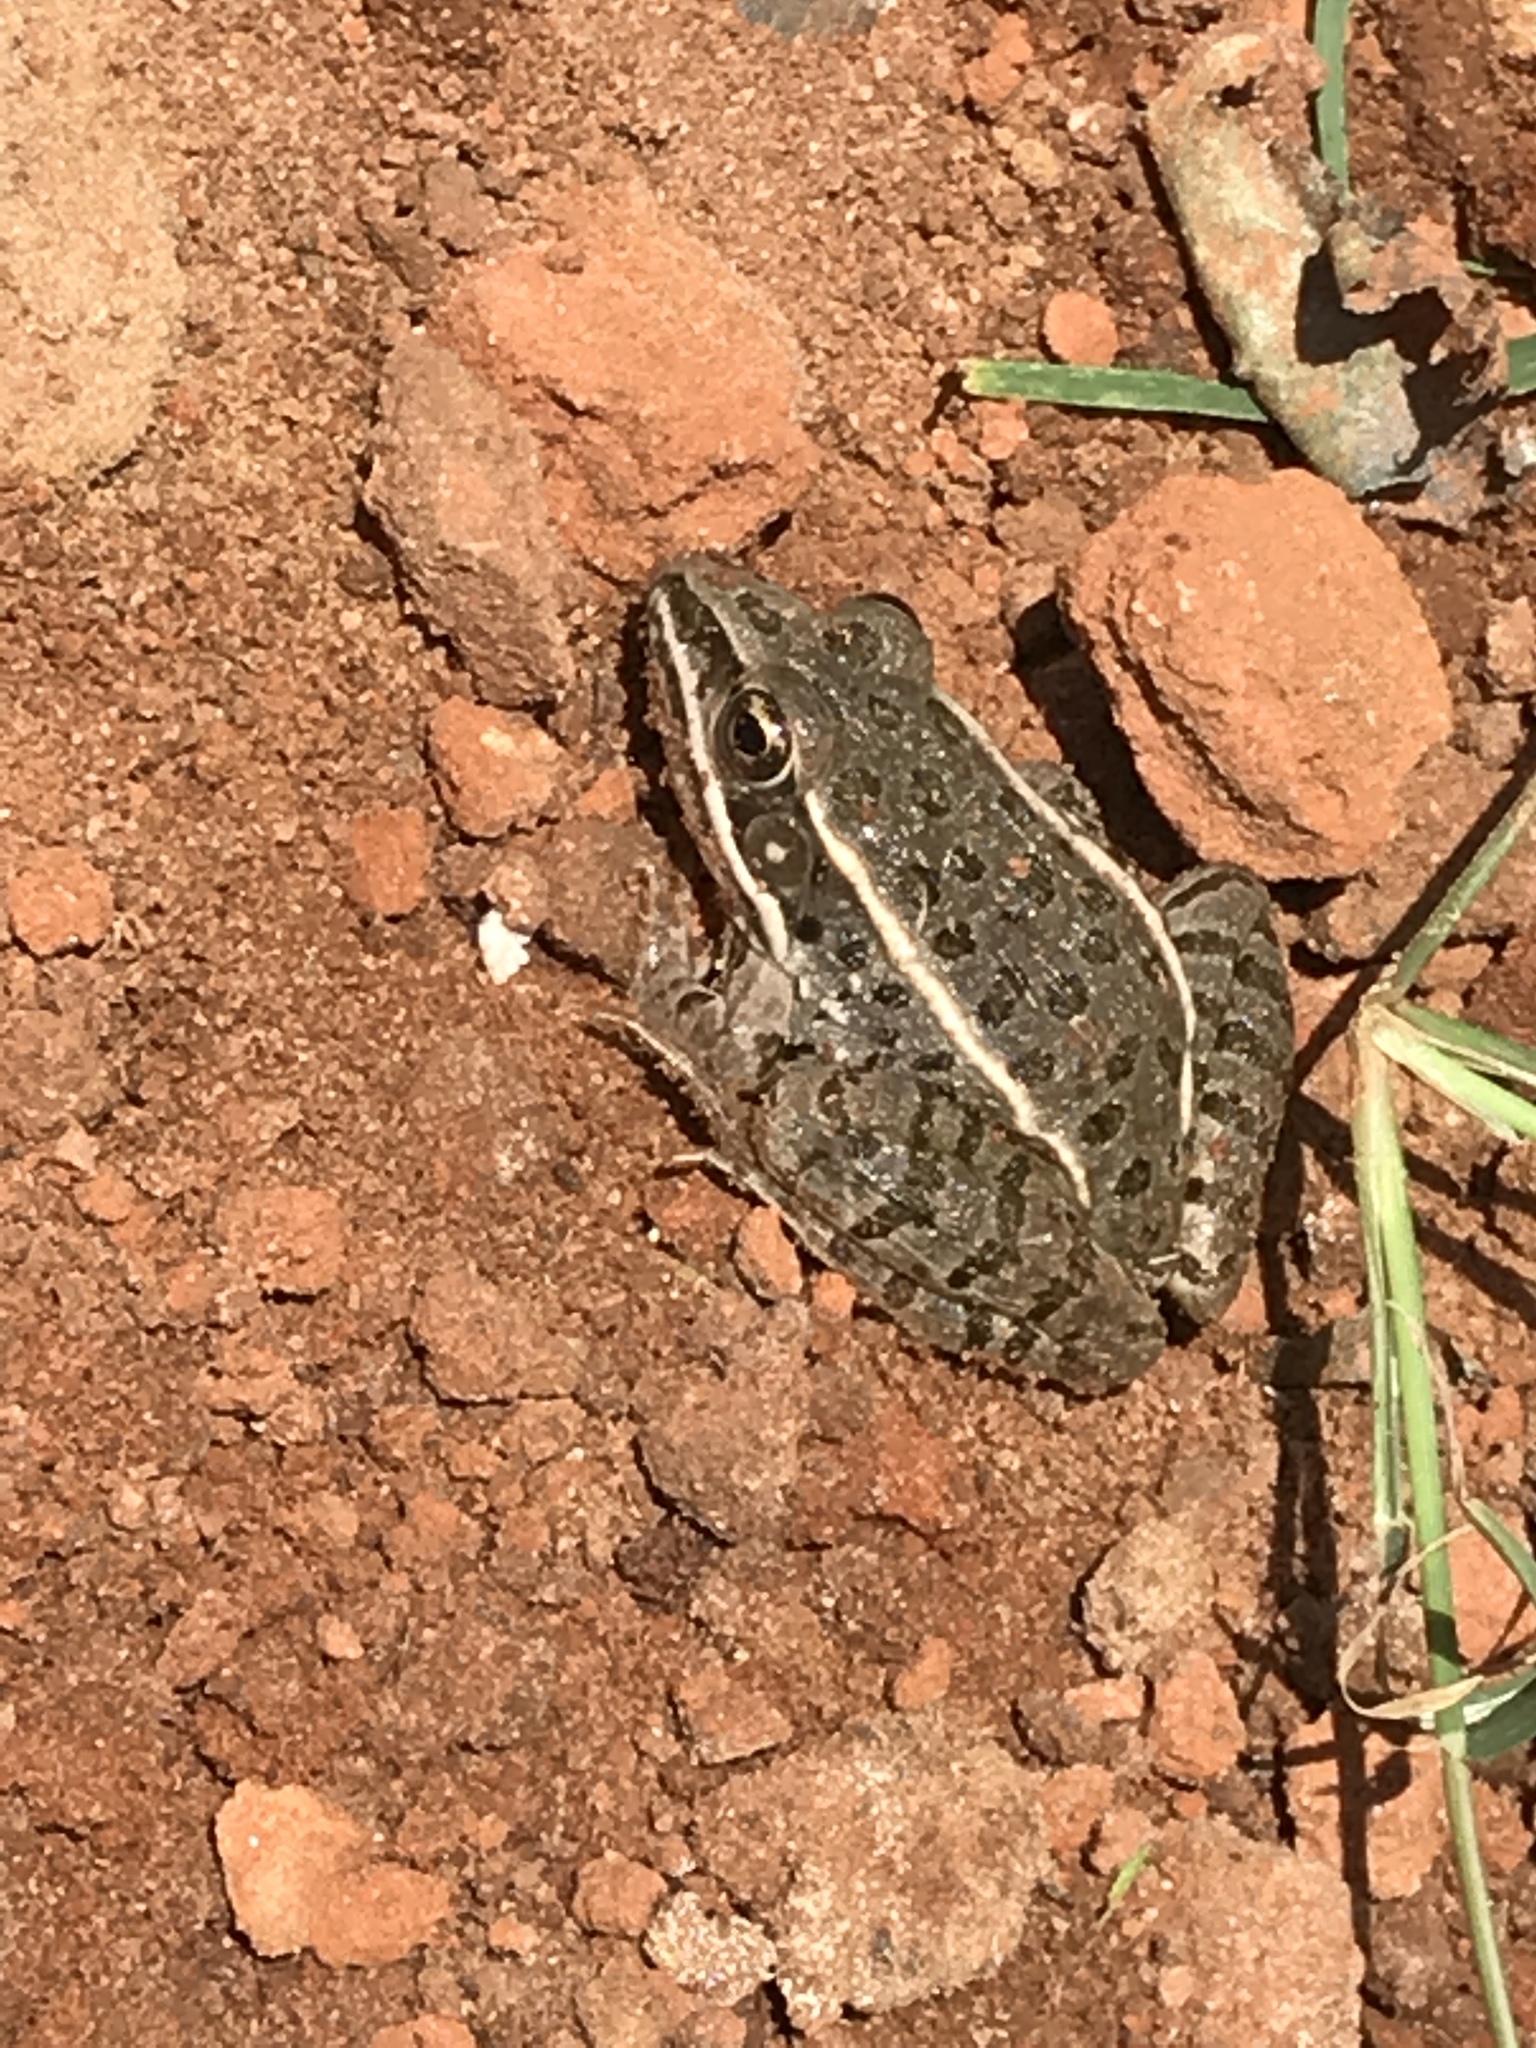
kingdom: Animalia
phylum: Chordata
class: Amphibia
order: Anura
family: Ranidae
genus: Lithobates
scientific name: Lithobates blairi
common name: Plains leopard frog
